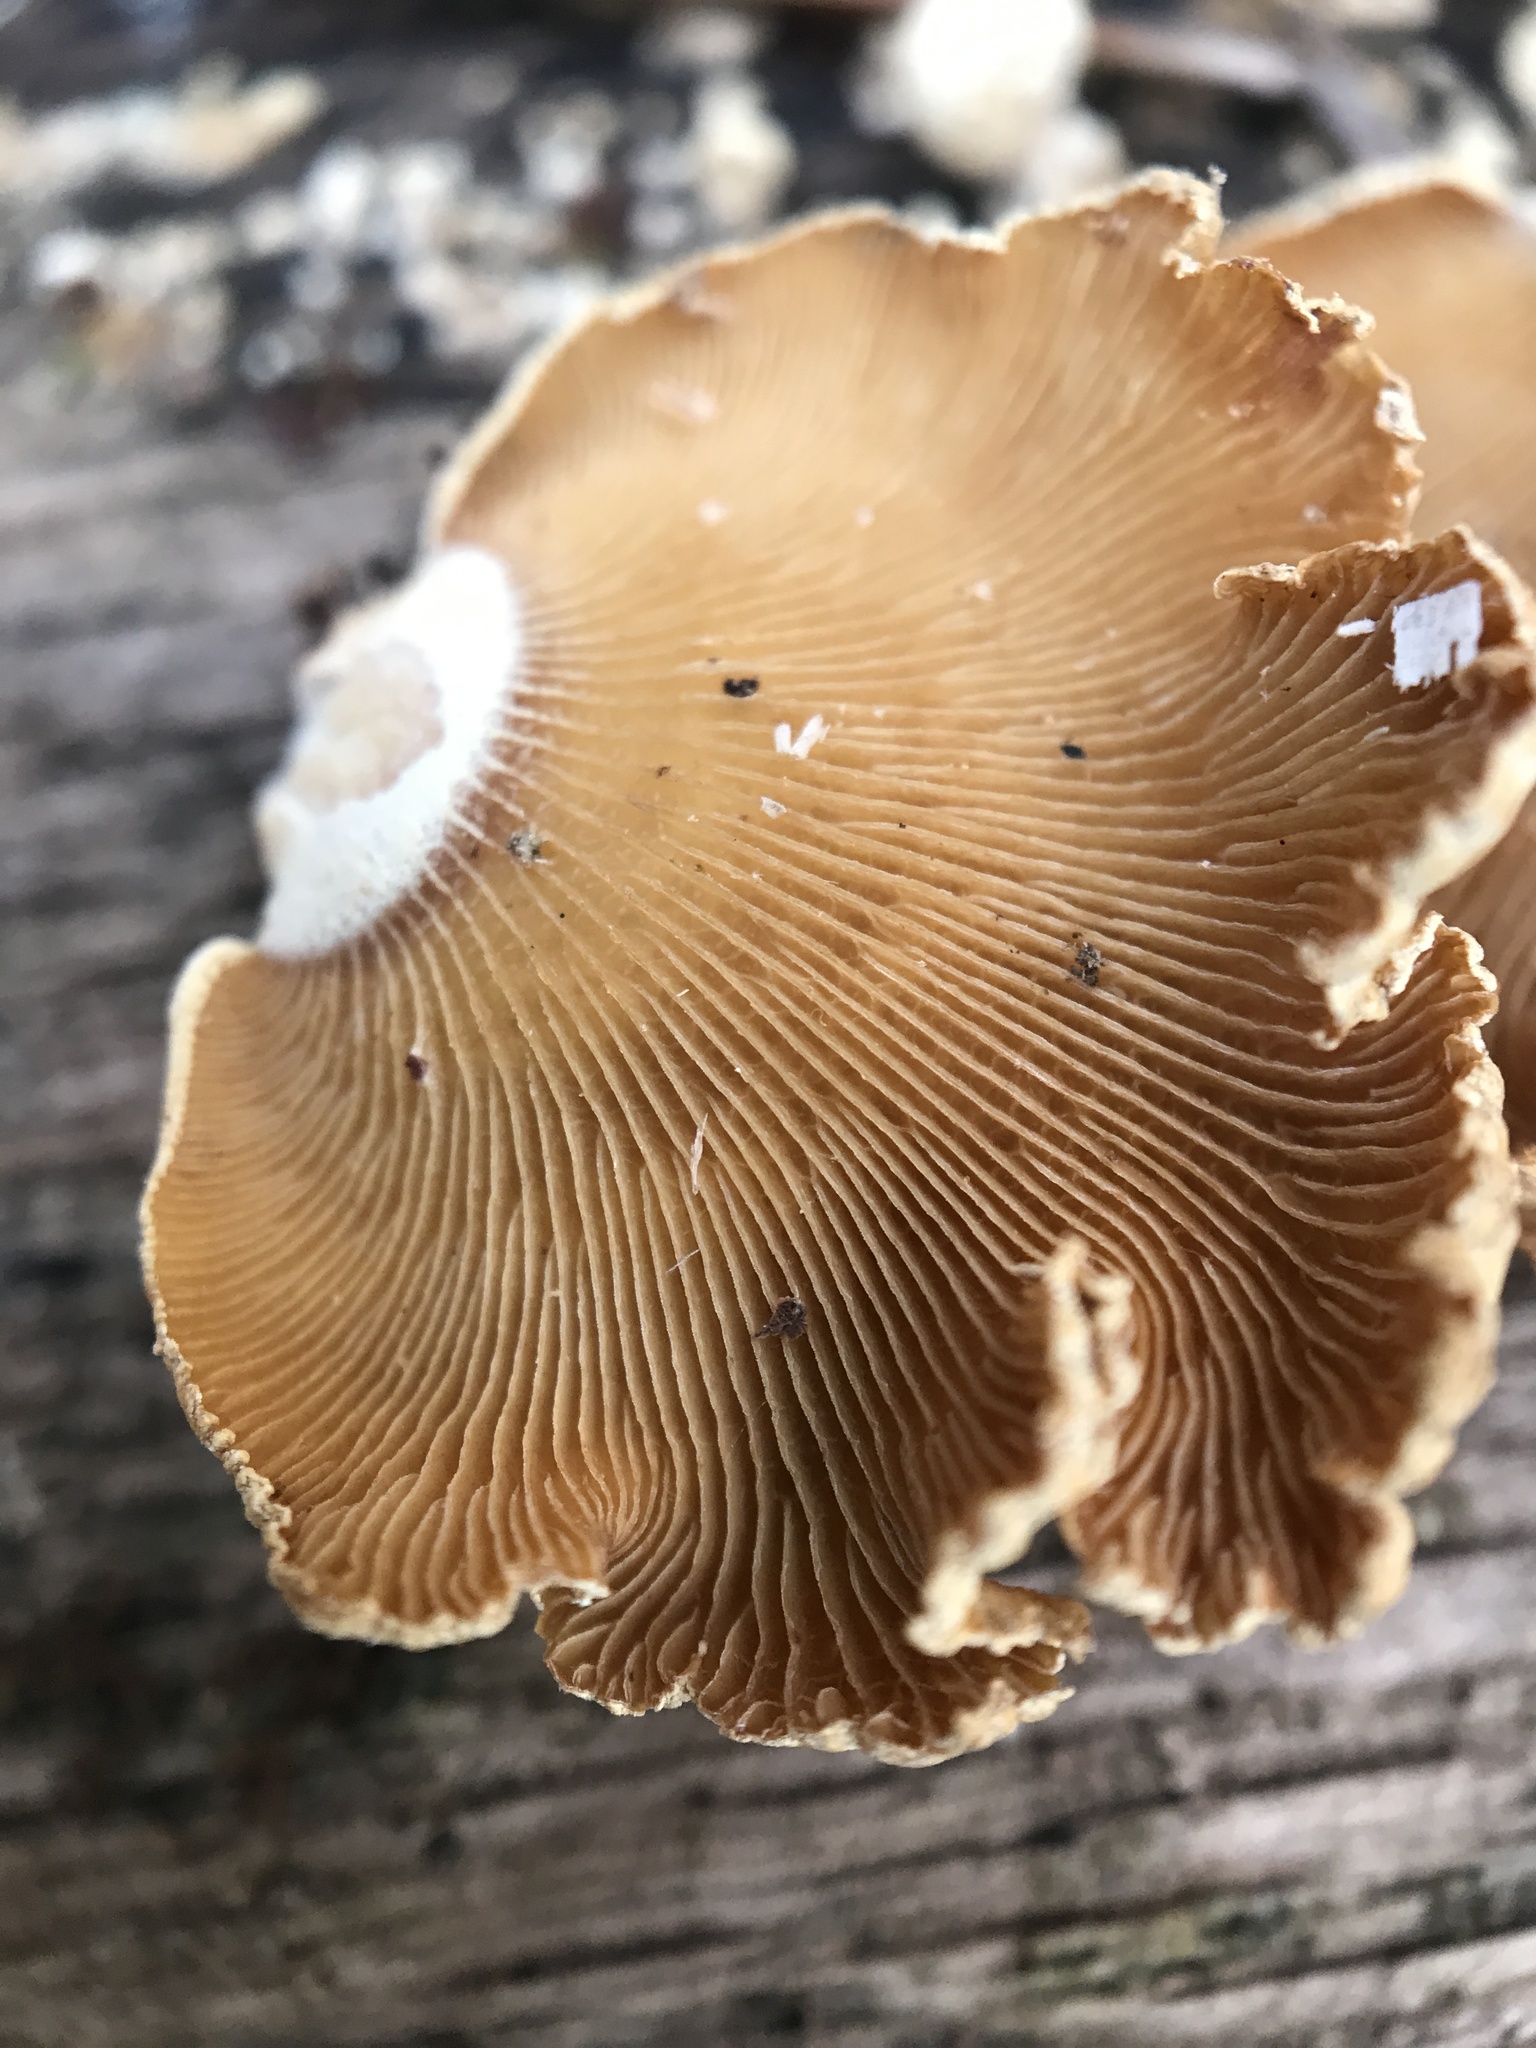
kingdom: Fungi
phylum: Basidiomycota
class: Agaricomycetes
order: Agaricales
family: Mycenaceae
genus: Panellus
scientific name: Panellus stipticus
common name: Bitter oysterling
